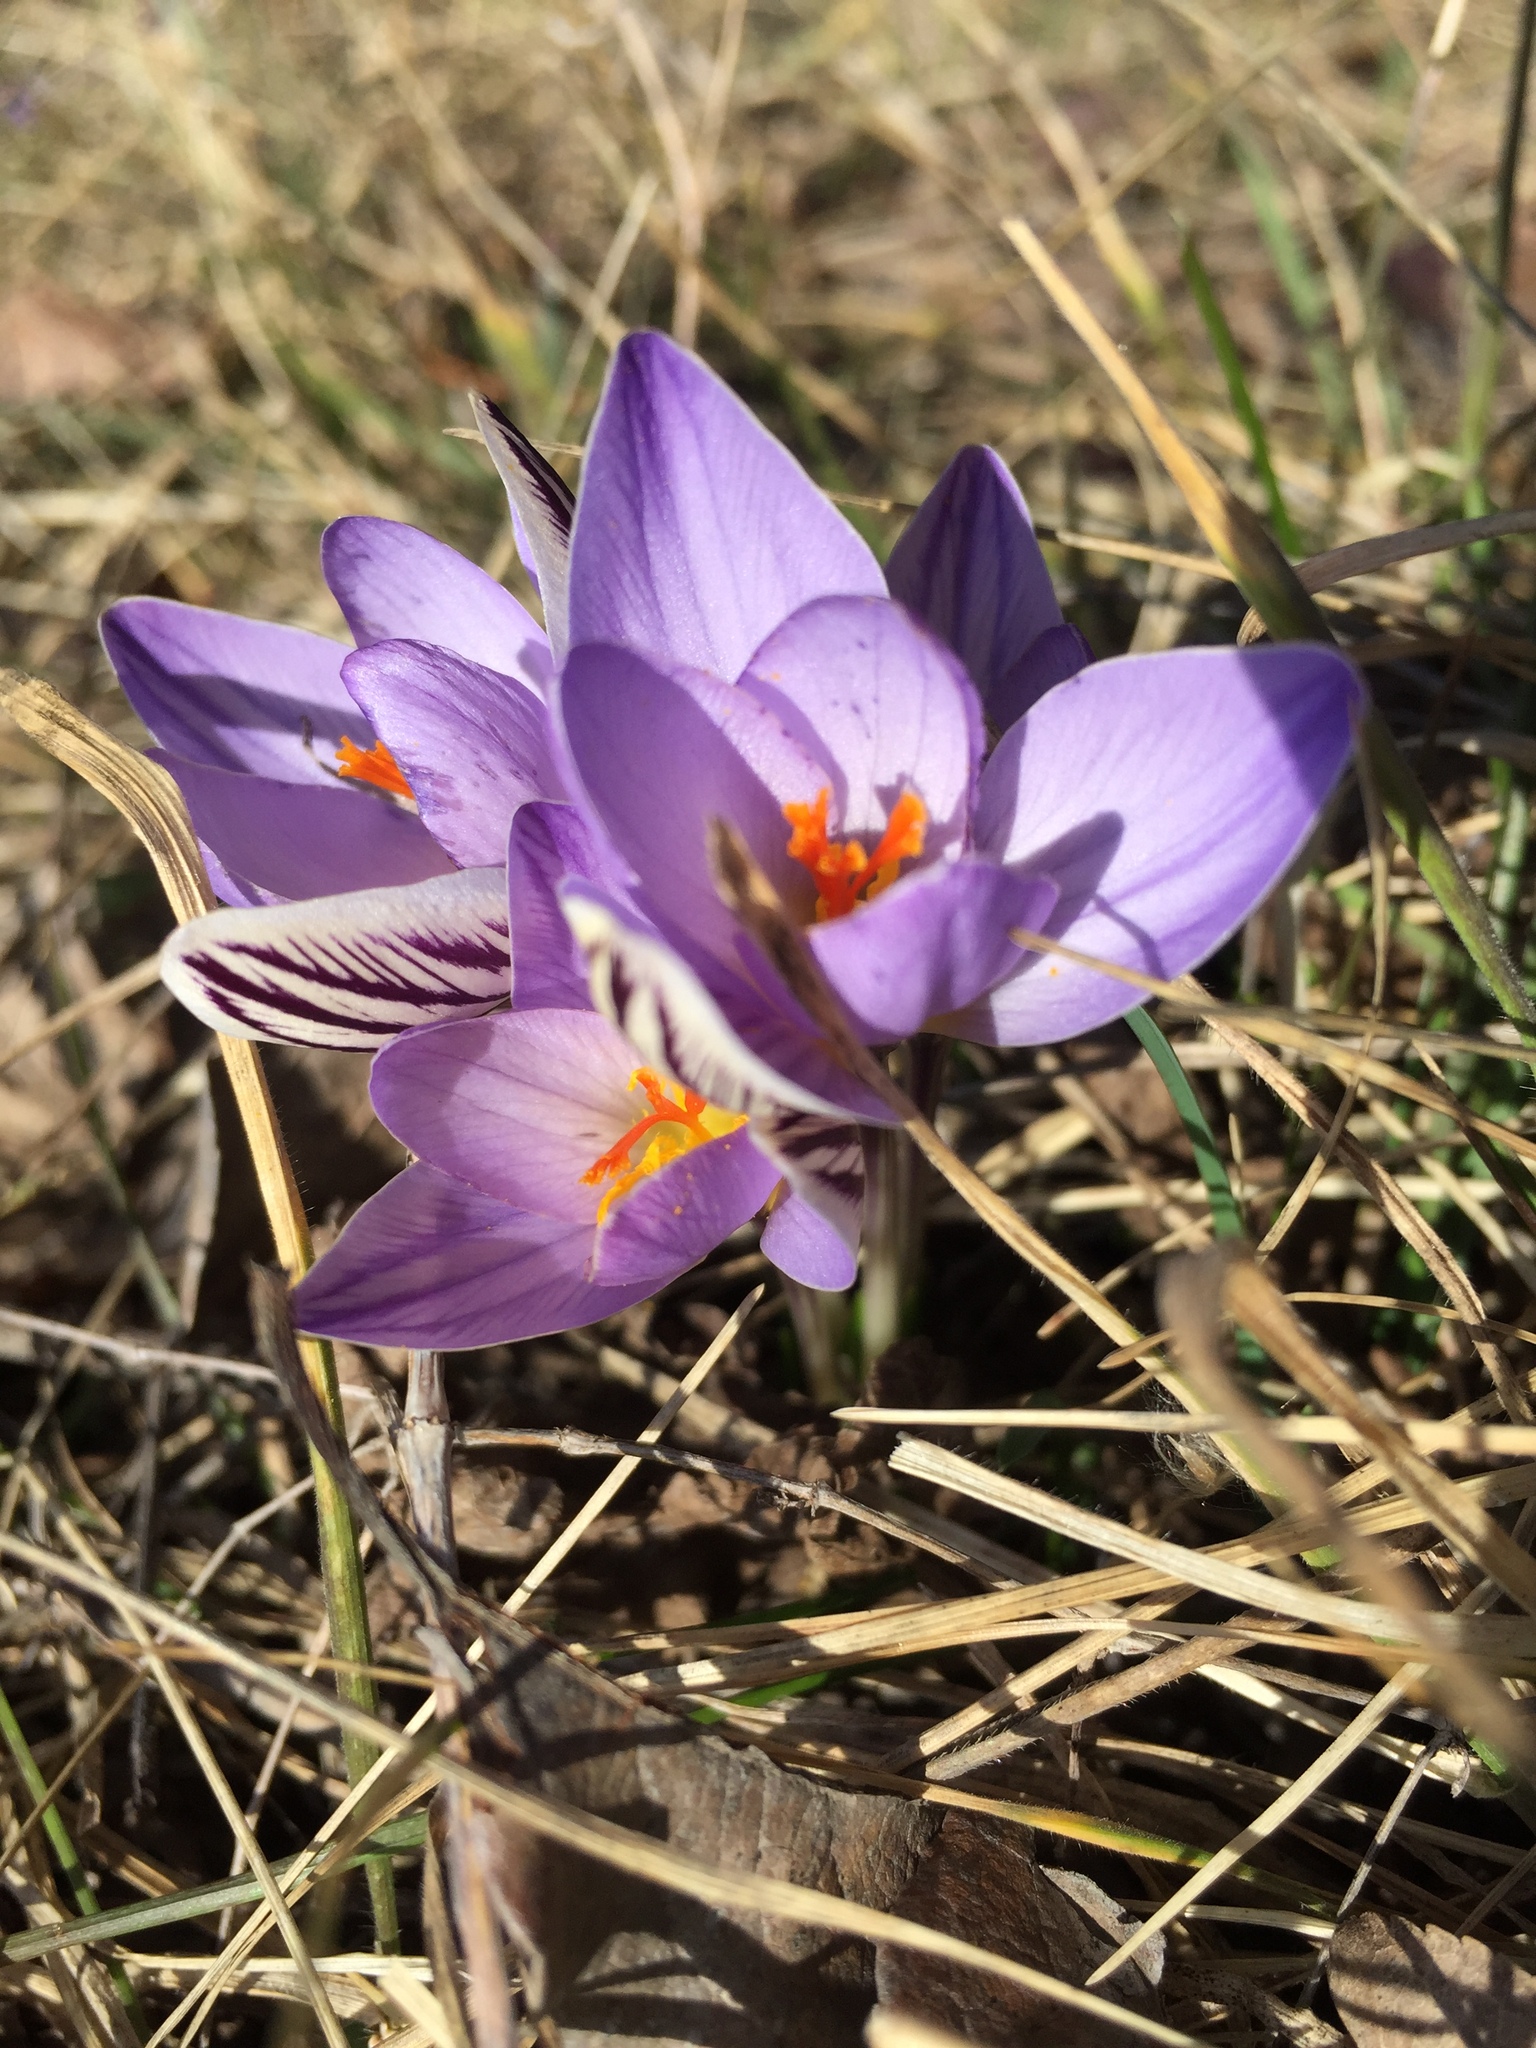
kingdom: Plantae
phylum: Tracheophyta
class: Liliopsida
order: Asparagales
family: Iridaceae
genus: Crocus
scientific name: Crocus reticulatus
